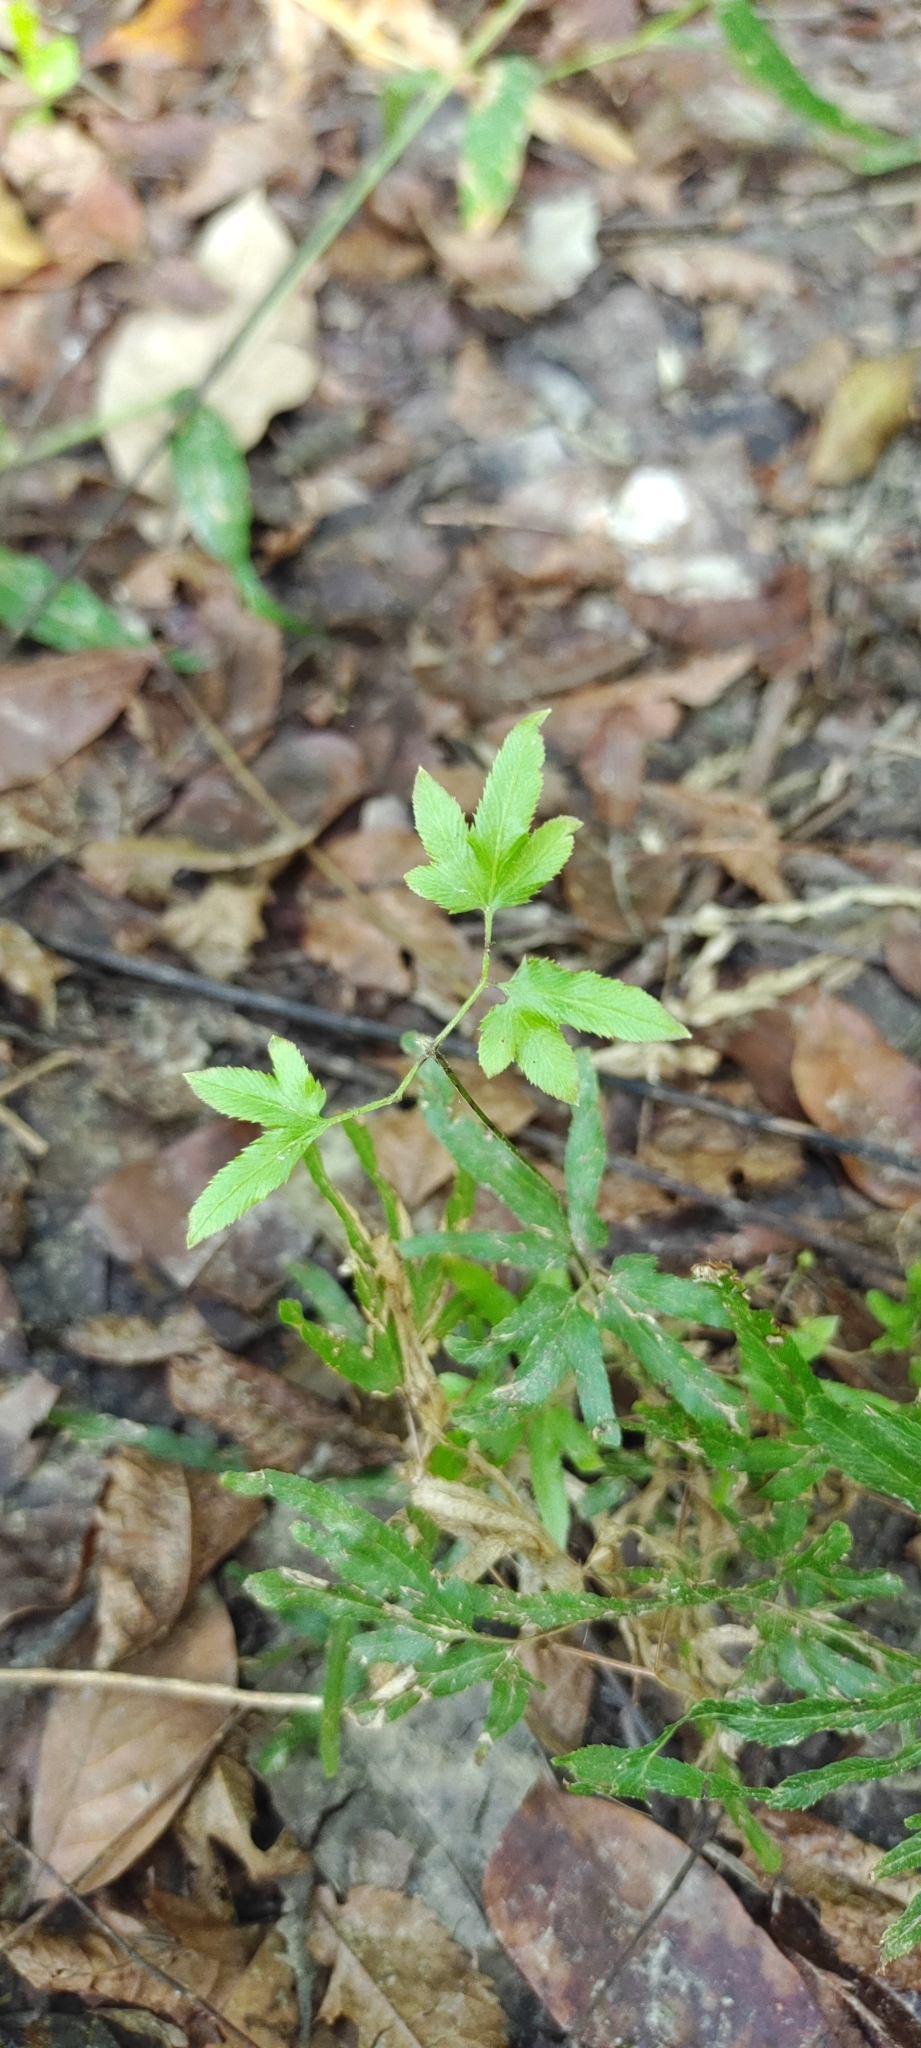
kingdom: Plantae
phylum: Tracheophyta
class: Polypodiopsida
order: Schizaeales
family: Lygodiaceae
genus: Lygodium
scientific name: Lygodium japonicum
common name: Japanese climbing fern
